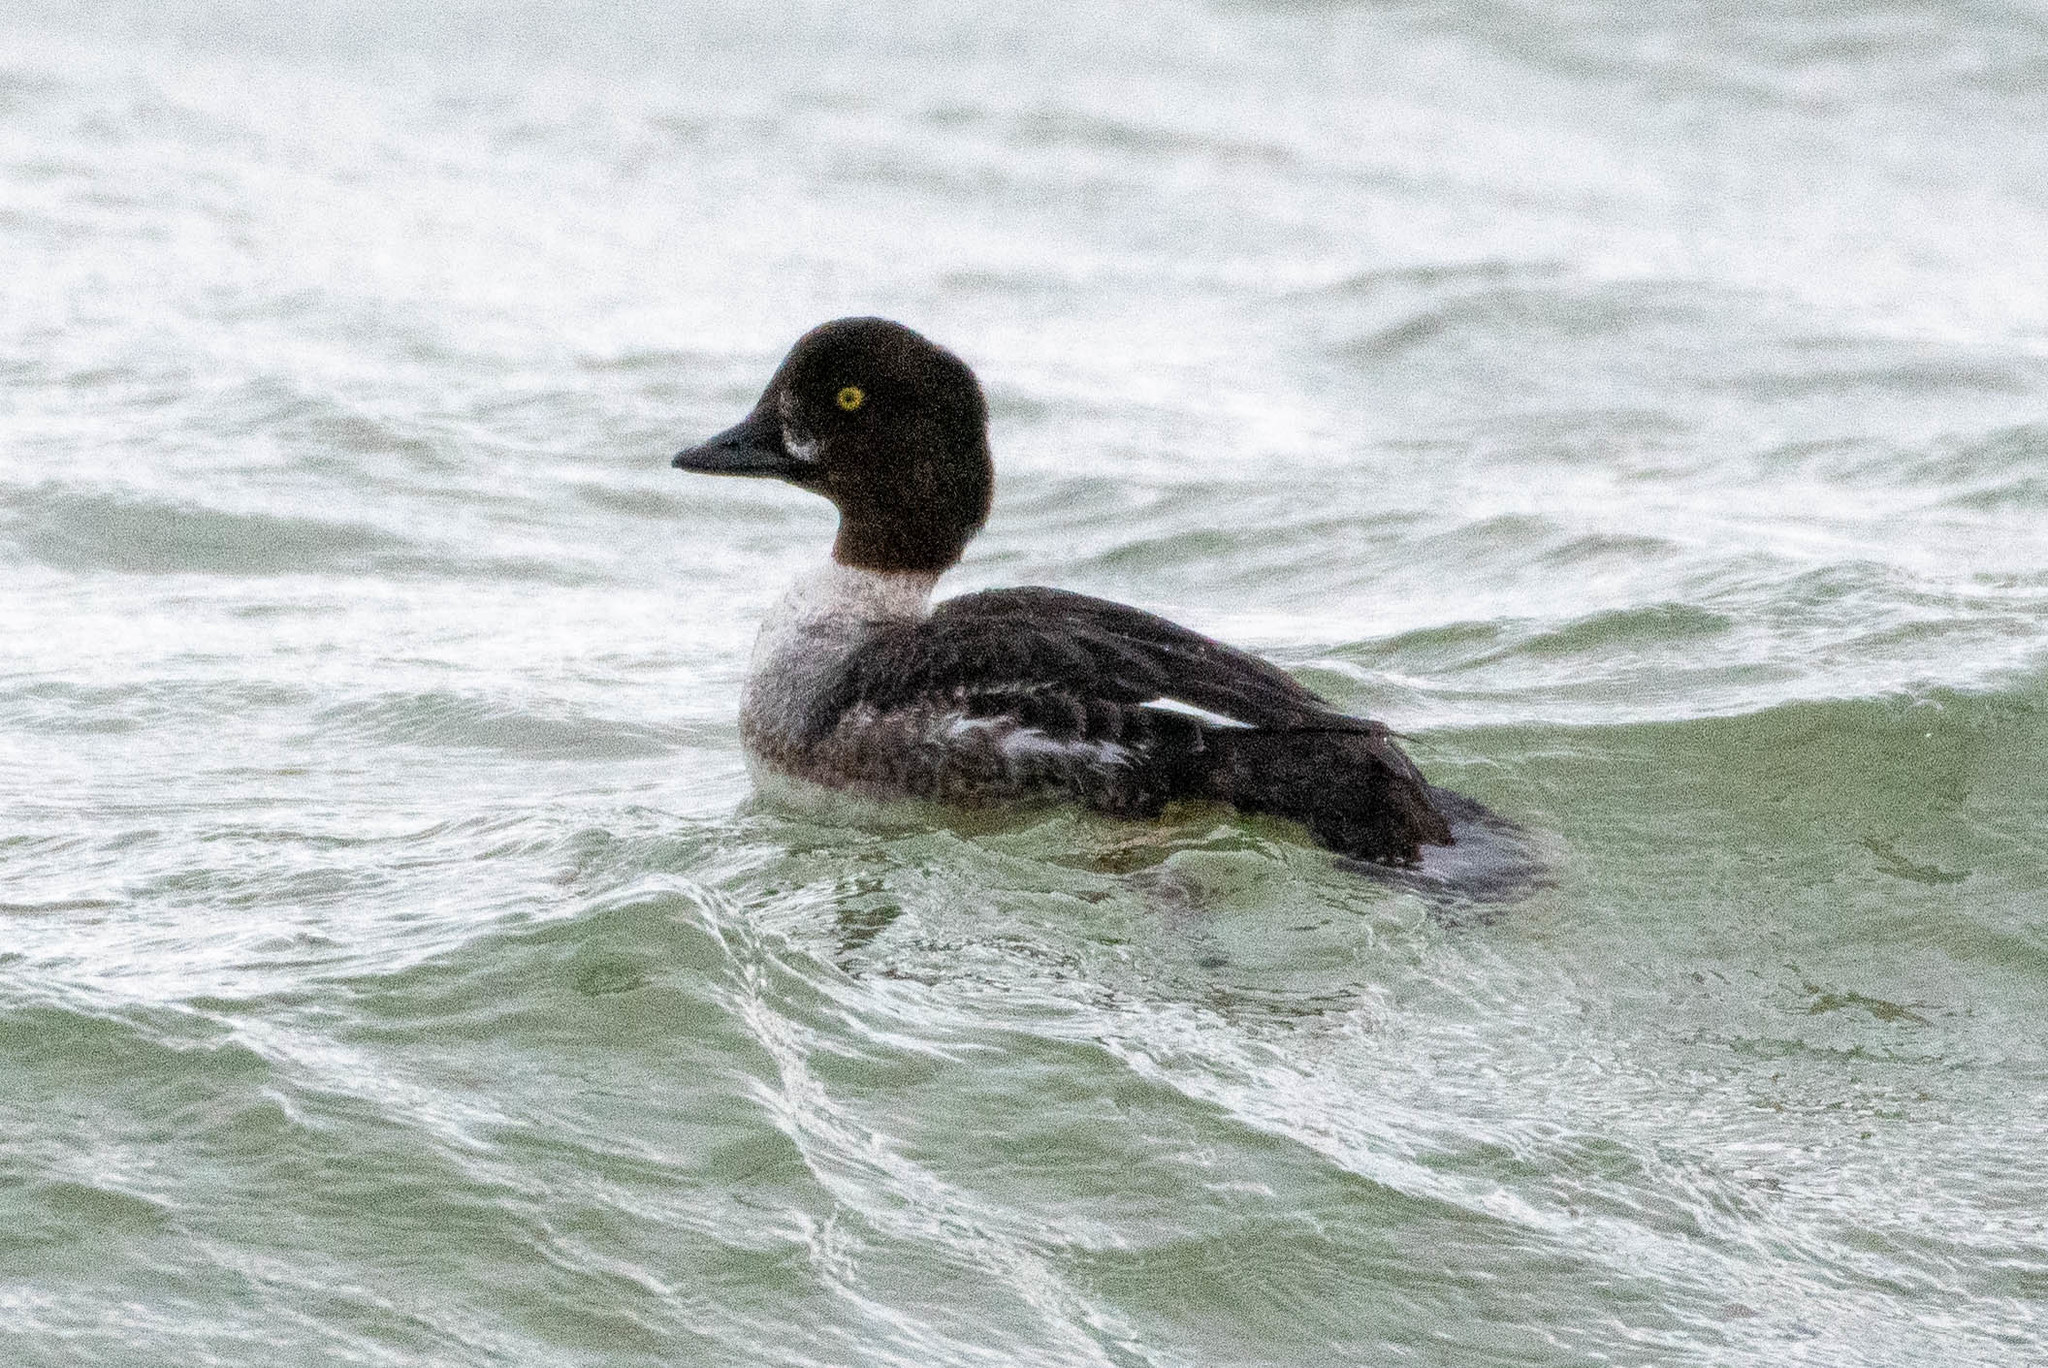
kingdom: Animalia
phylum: Chordata
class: Aves
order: Anseriformes
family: Anatidae
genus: Bucephala
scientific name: Bucephala islandica
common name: Barrow's goldeneye
